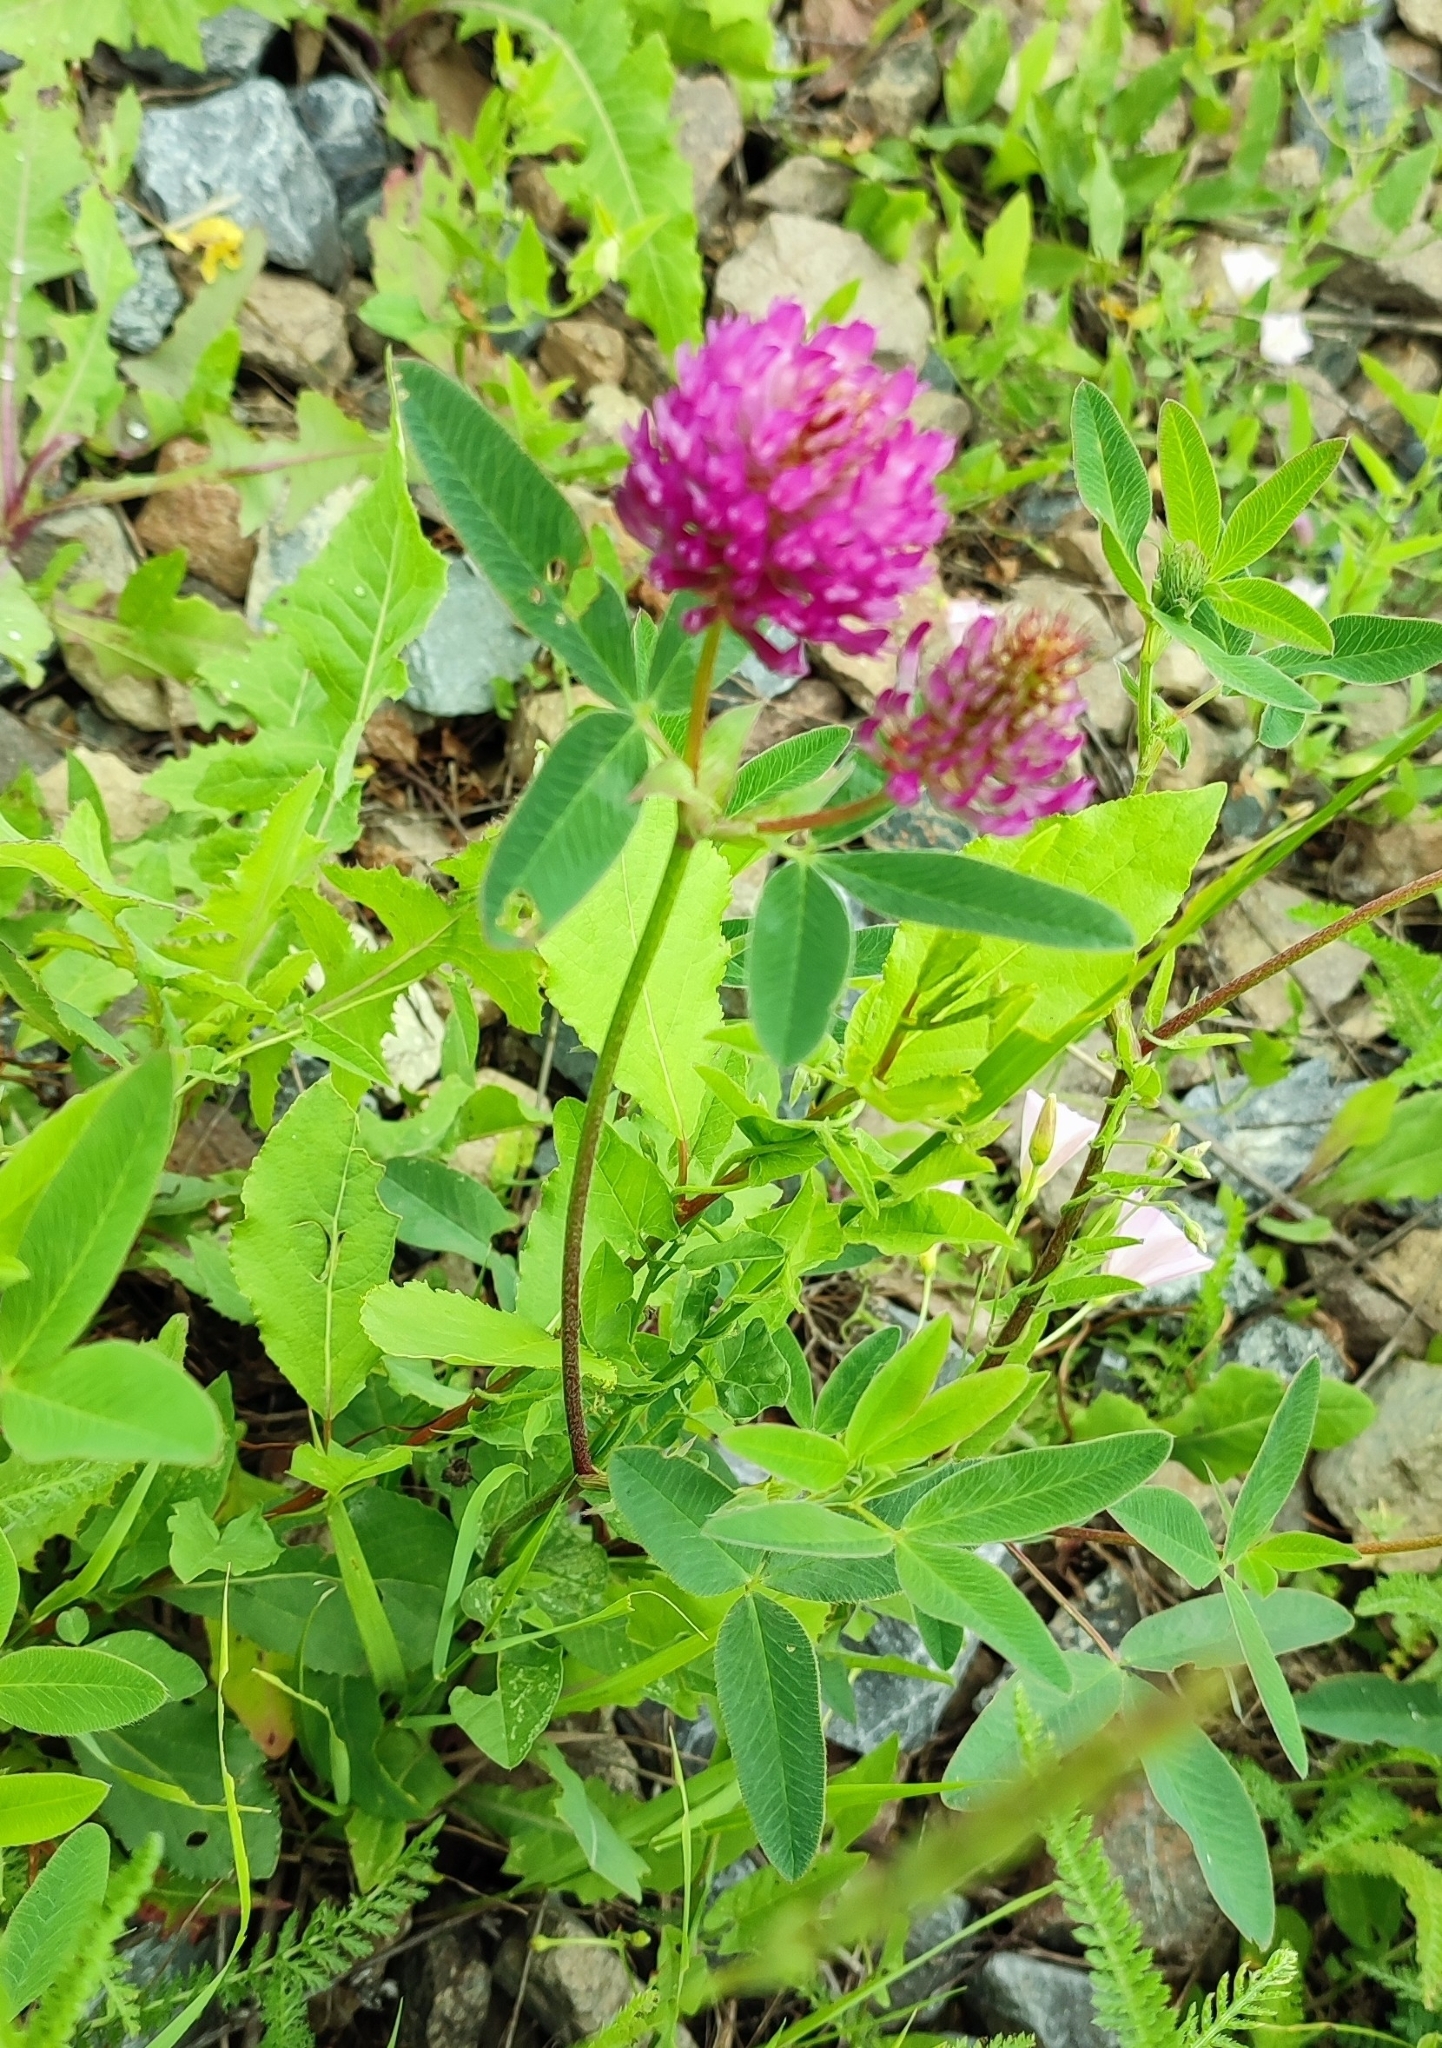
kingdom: Plantae
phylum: Tracheophyta
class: Magnoliopsida
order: Fabales
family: Fabaceae
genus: Trifolium
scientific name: Trifolium medium
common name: Zigzag clover
